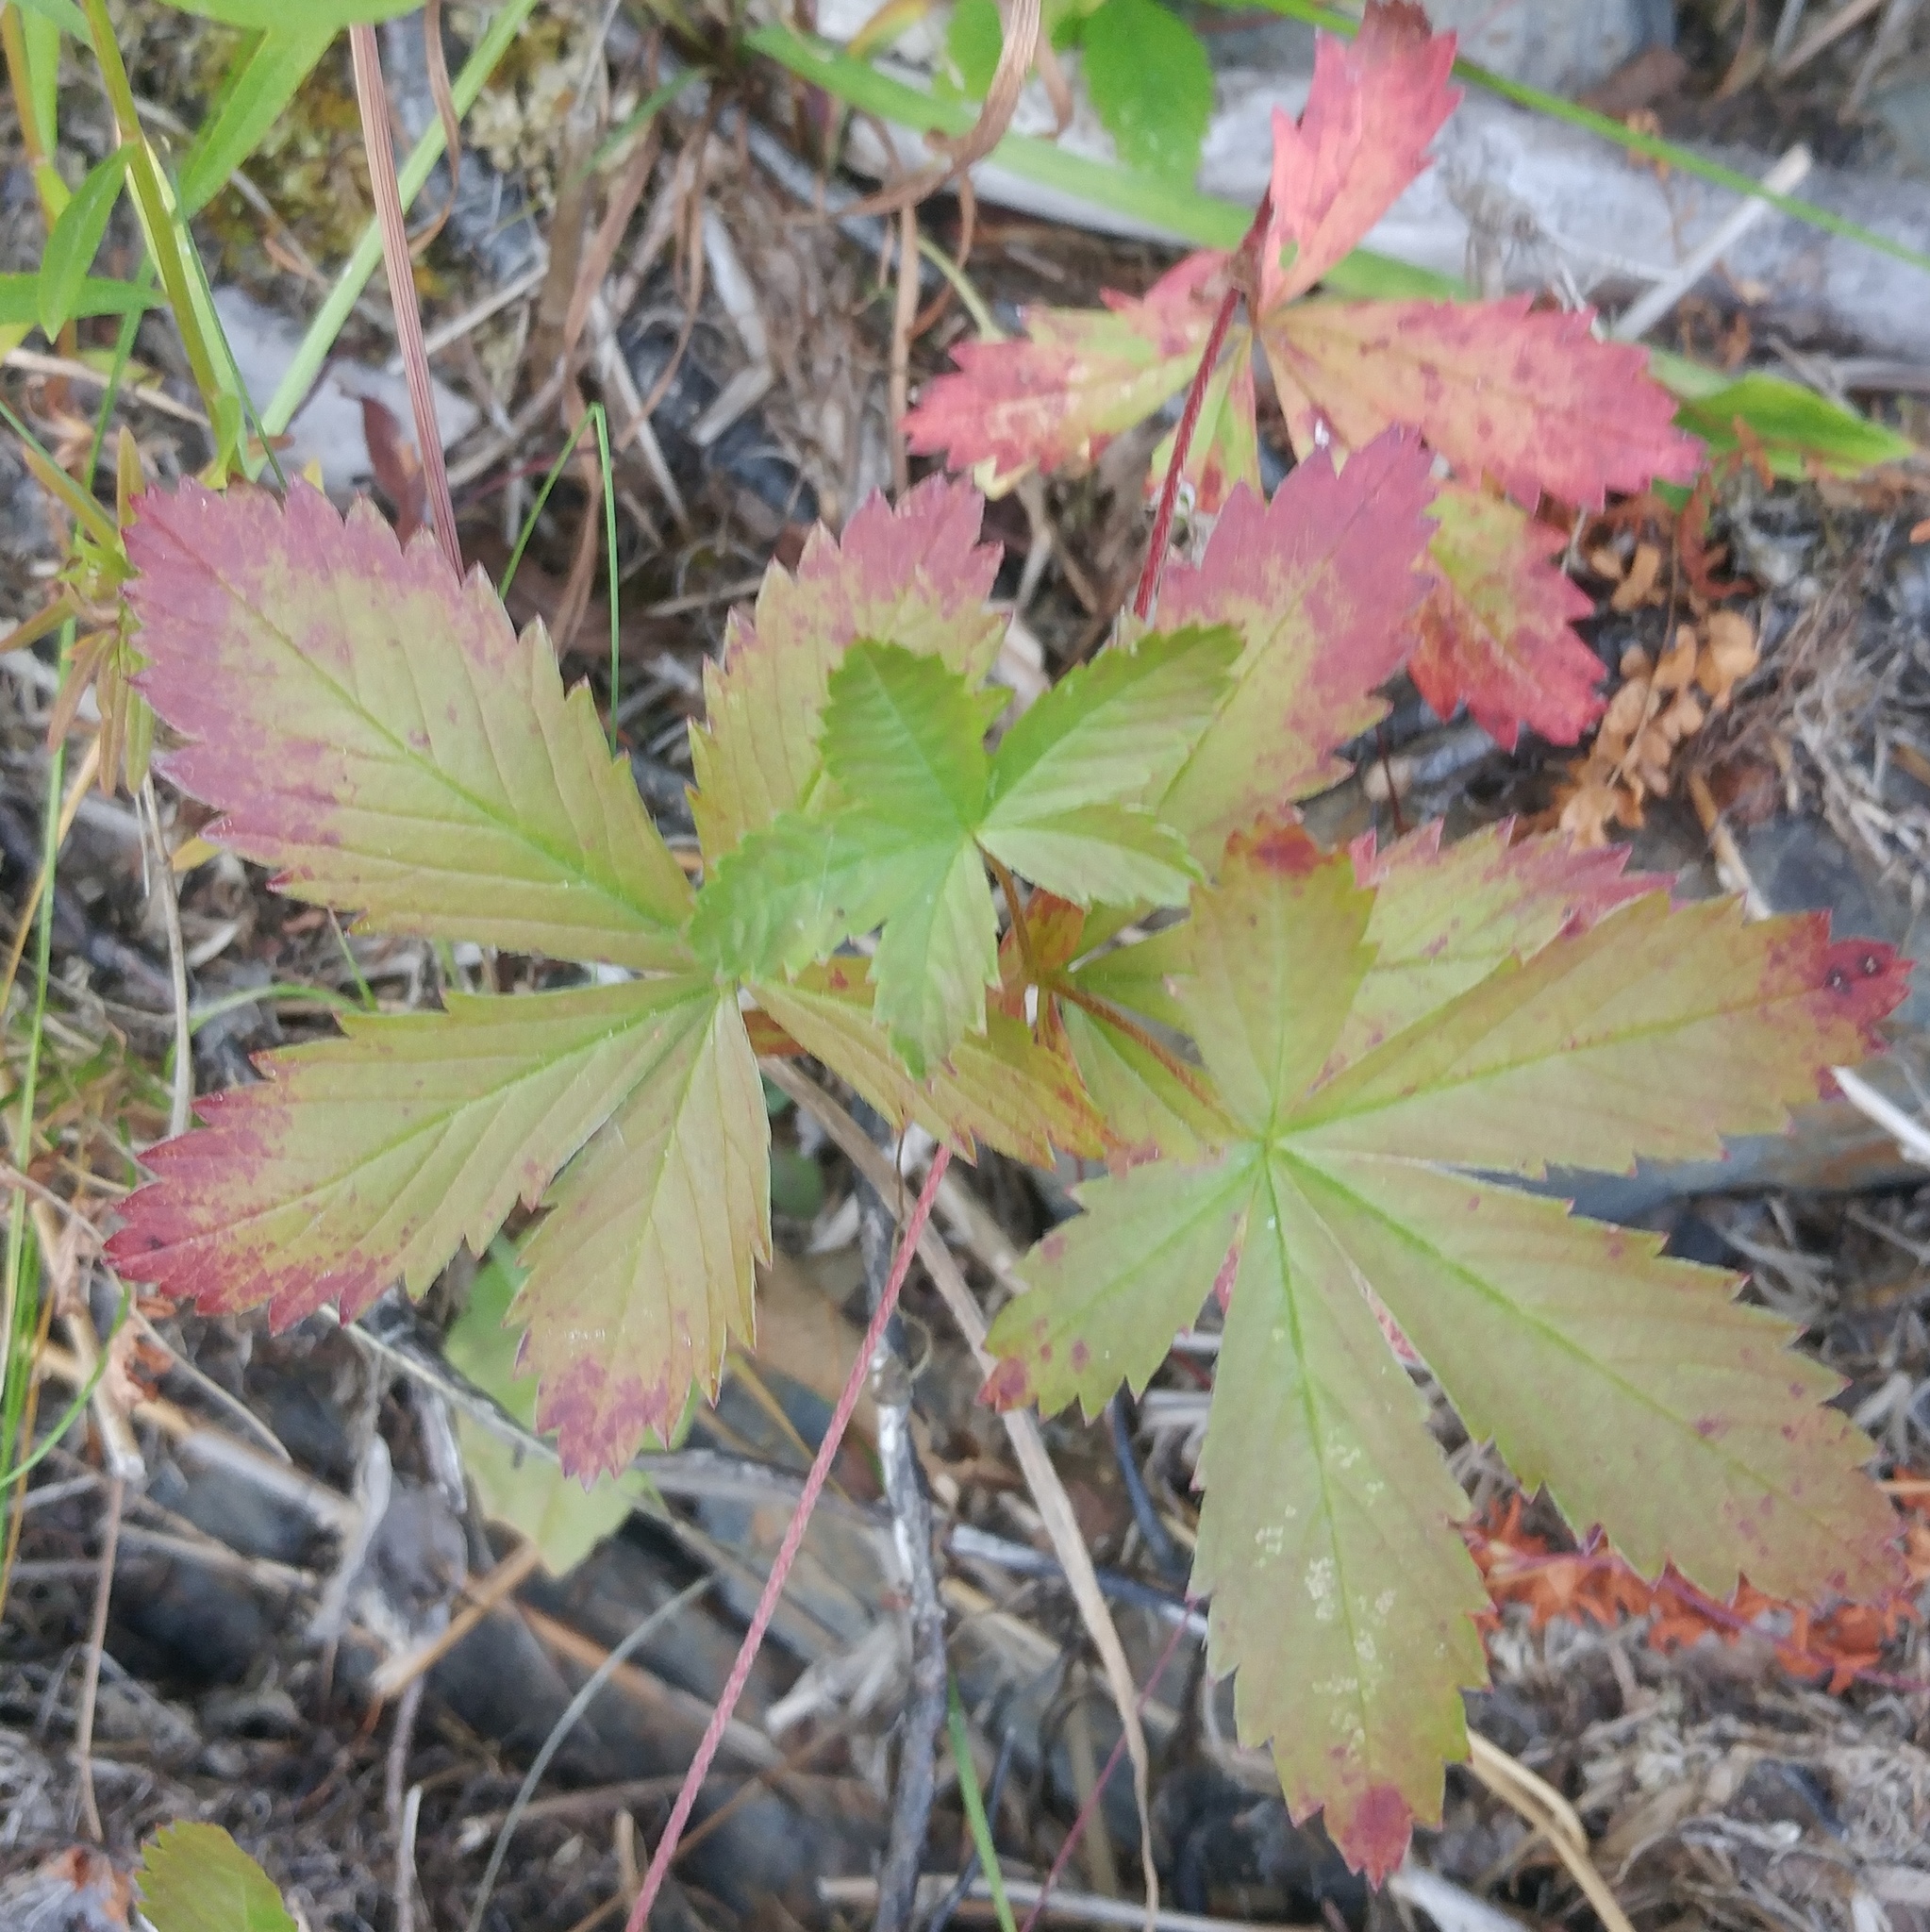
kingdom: Plantae
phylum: Tracheophyta
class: Magnoliopsida
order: Rosales
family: Rosaceae
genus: Potentilla
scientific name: Potentilla simplex
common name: Old field cinquefoil
